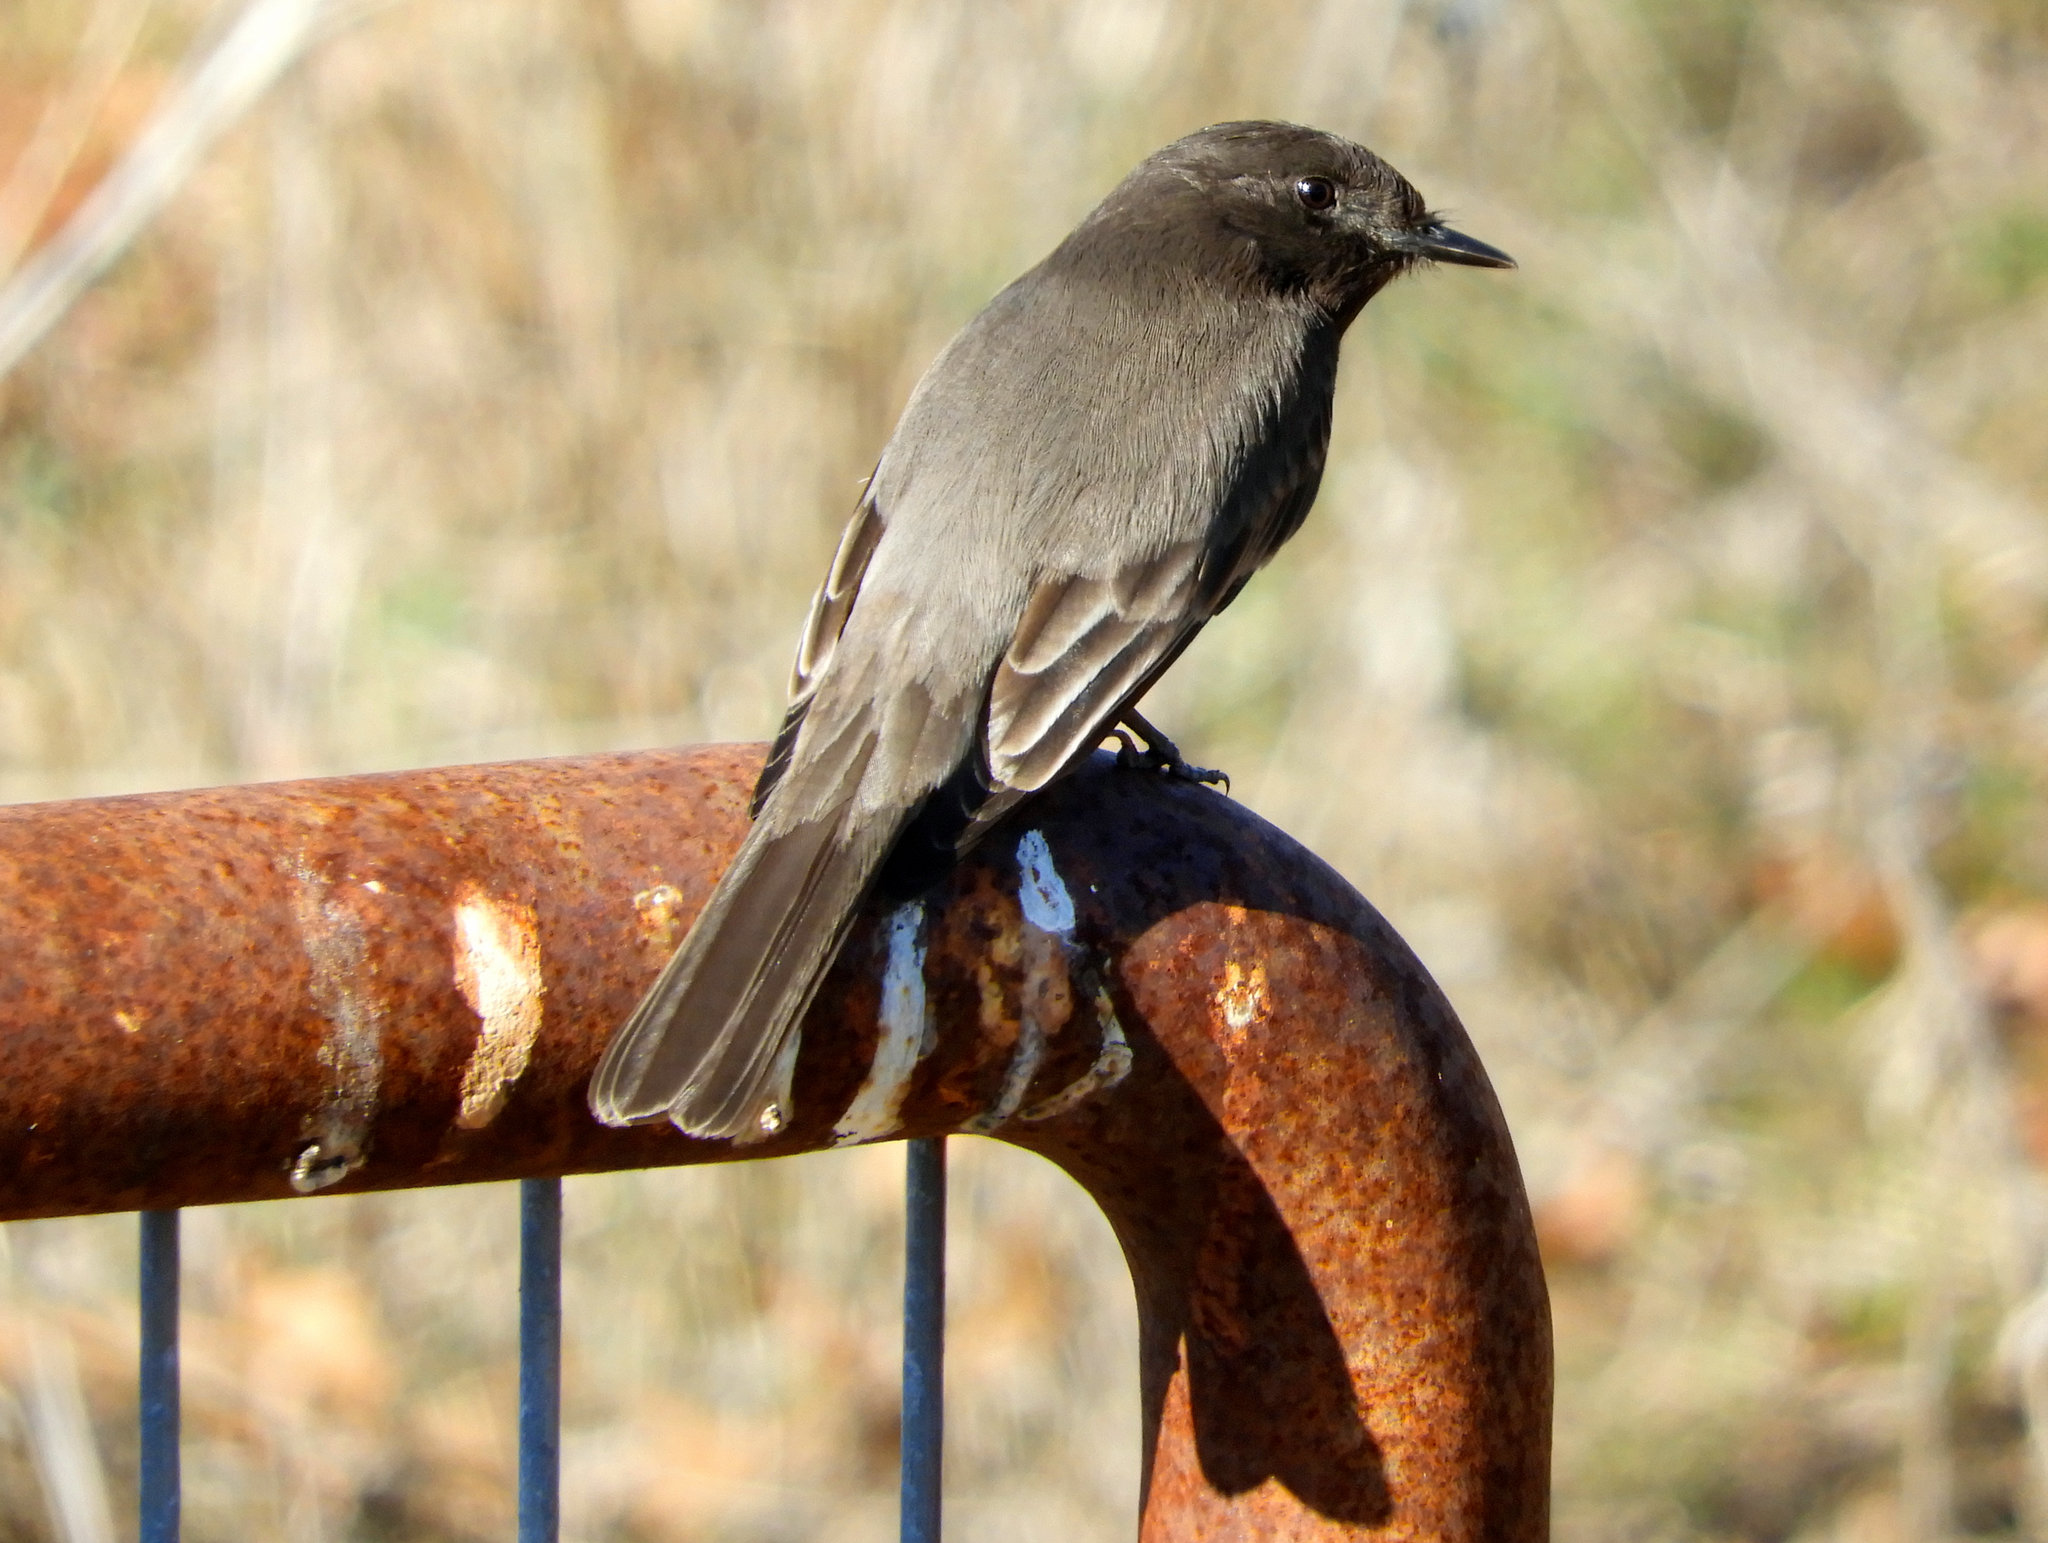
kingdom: Animalia
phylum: Chordata
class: Aves
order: Passeriformes
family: Tyrannidae
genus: Sayornis
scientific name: Sayornis nigricans
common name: Black phoebe
